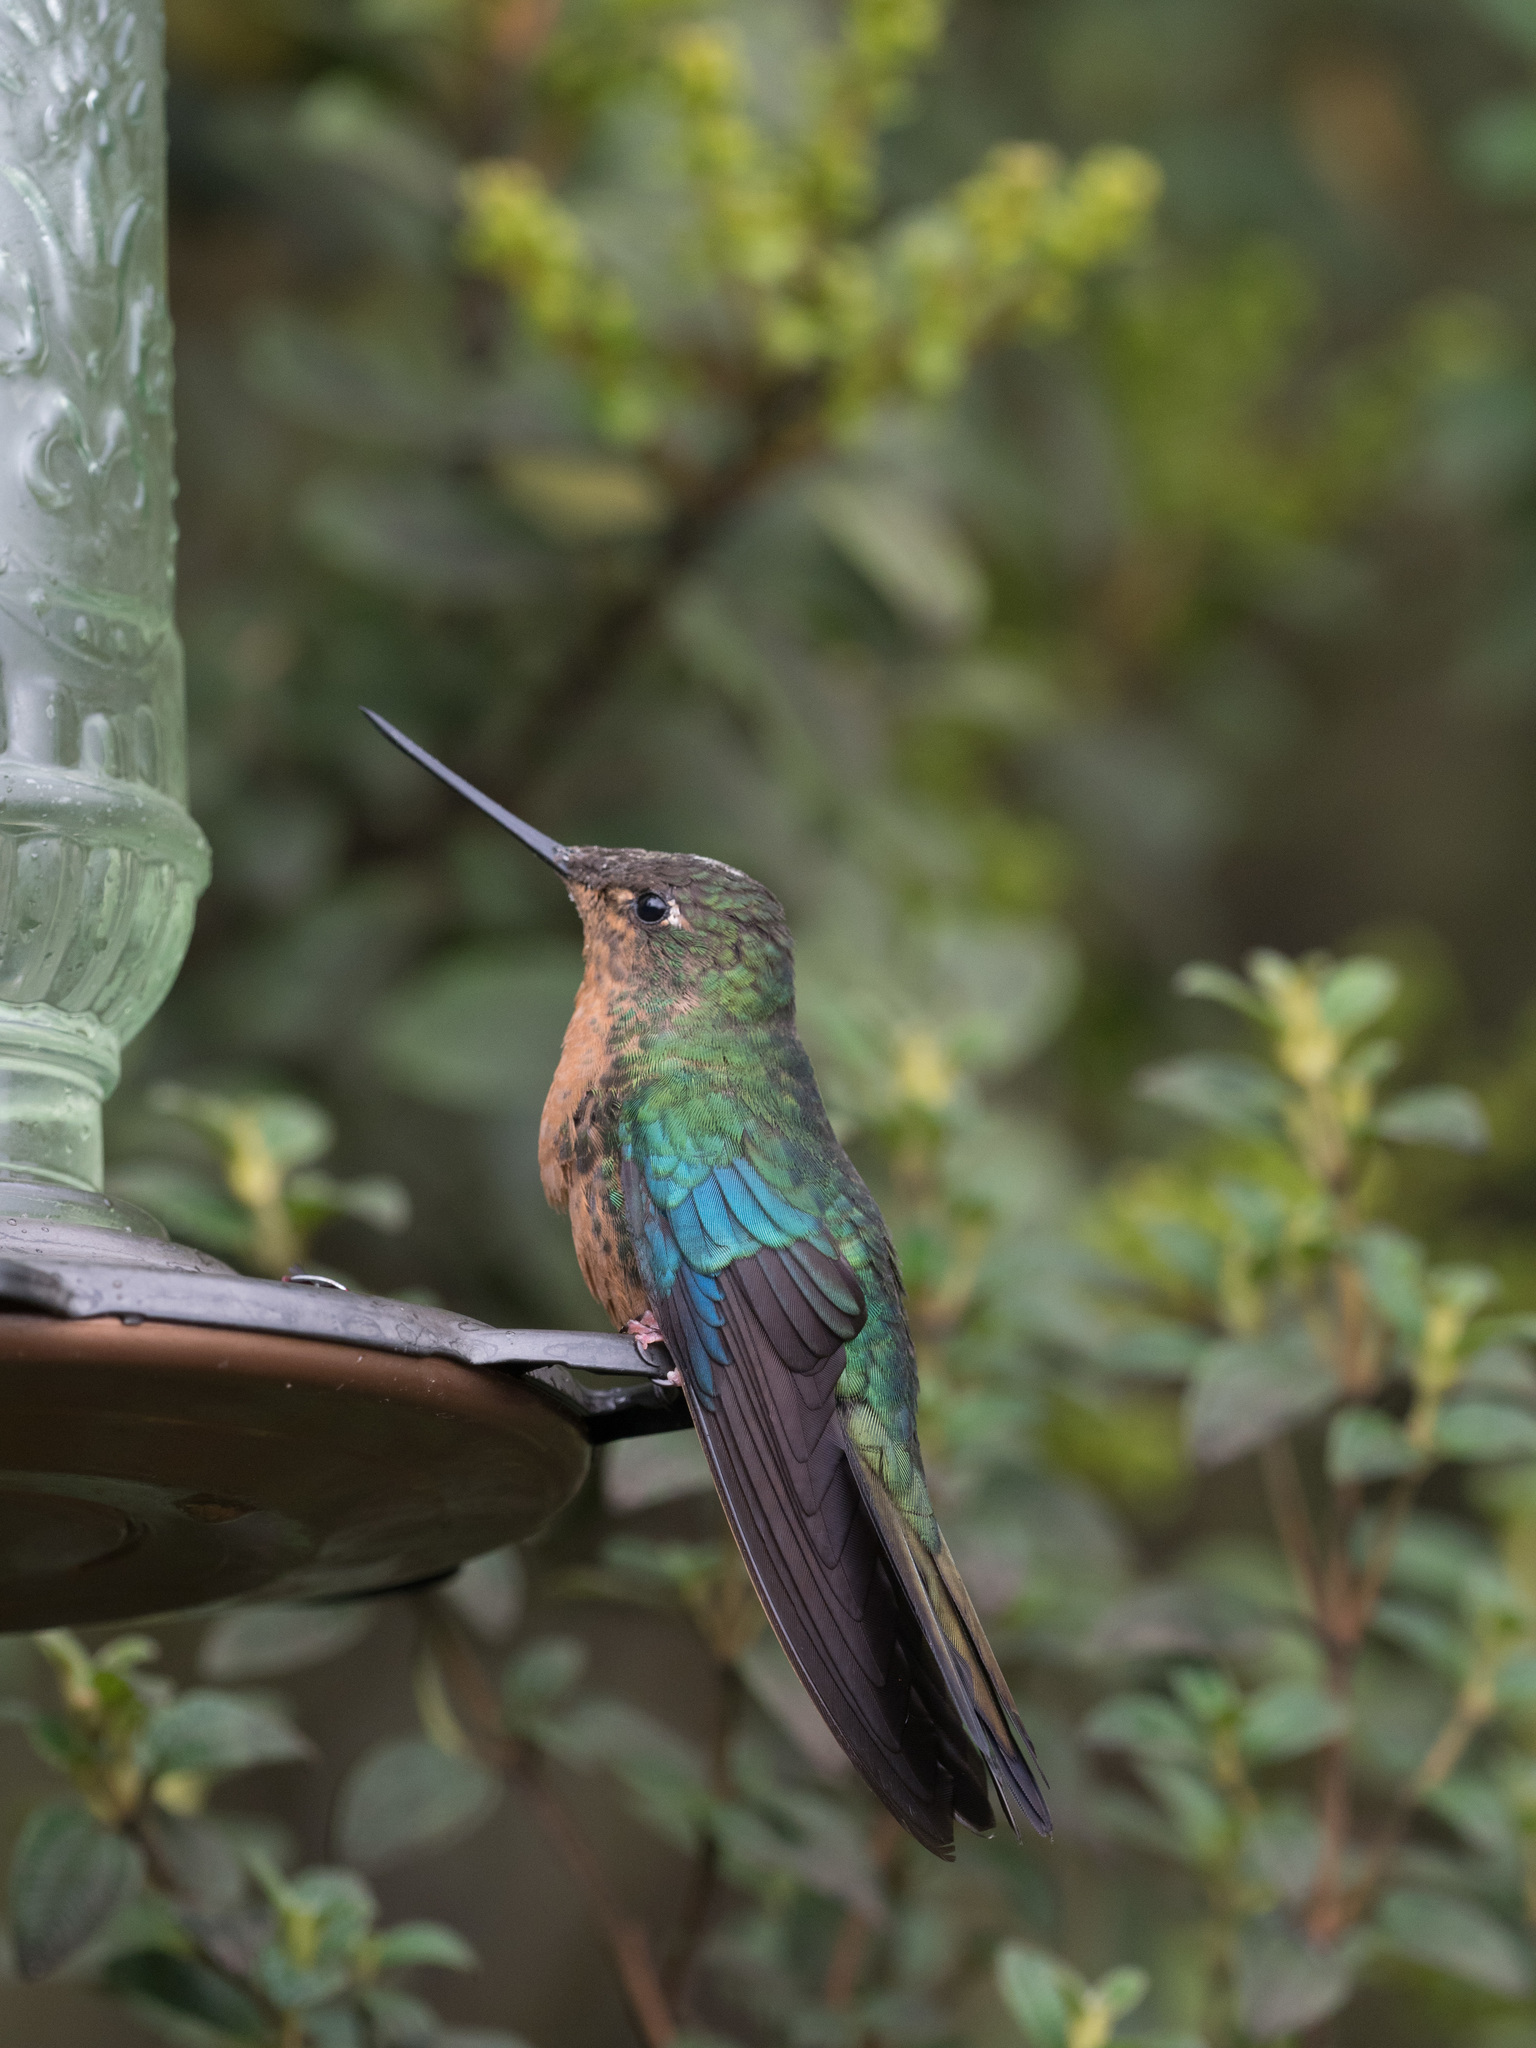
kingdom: Animalia
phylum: Chordata
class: Aves
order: Apodiformes
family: Trochilidae
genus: Pterophanes
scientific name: Pterophanes cyanopterus
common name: Great sapphirewing
